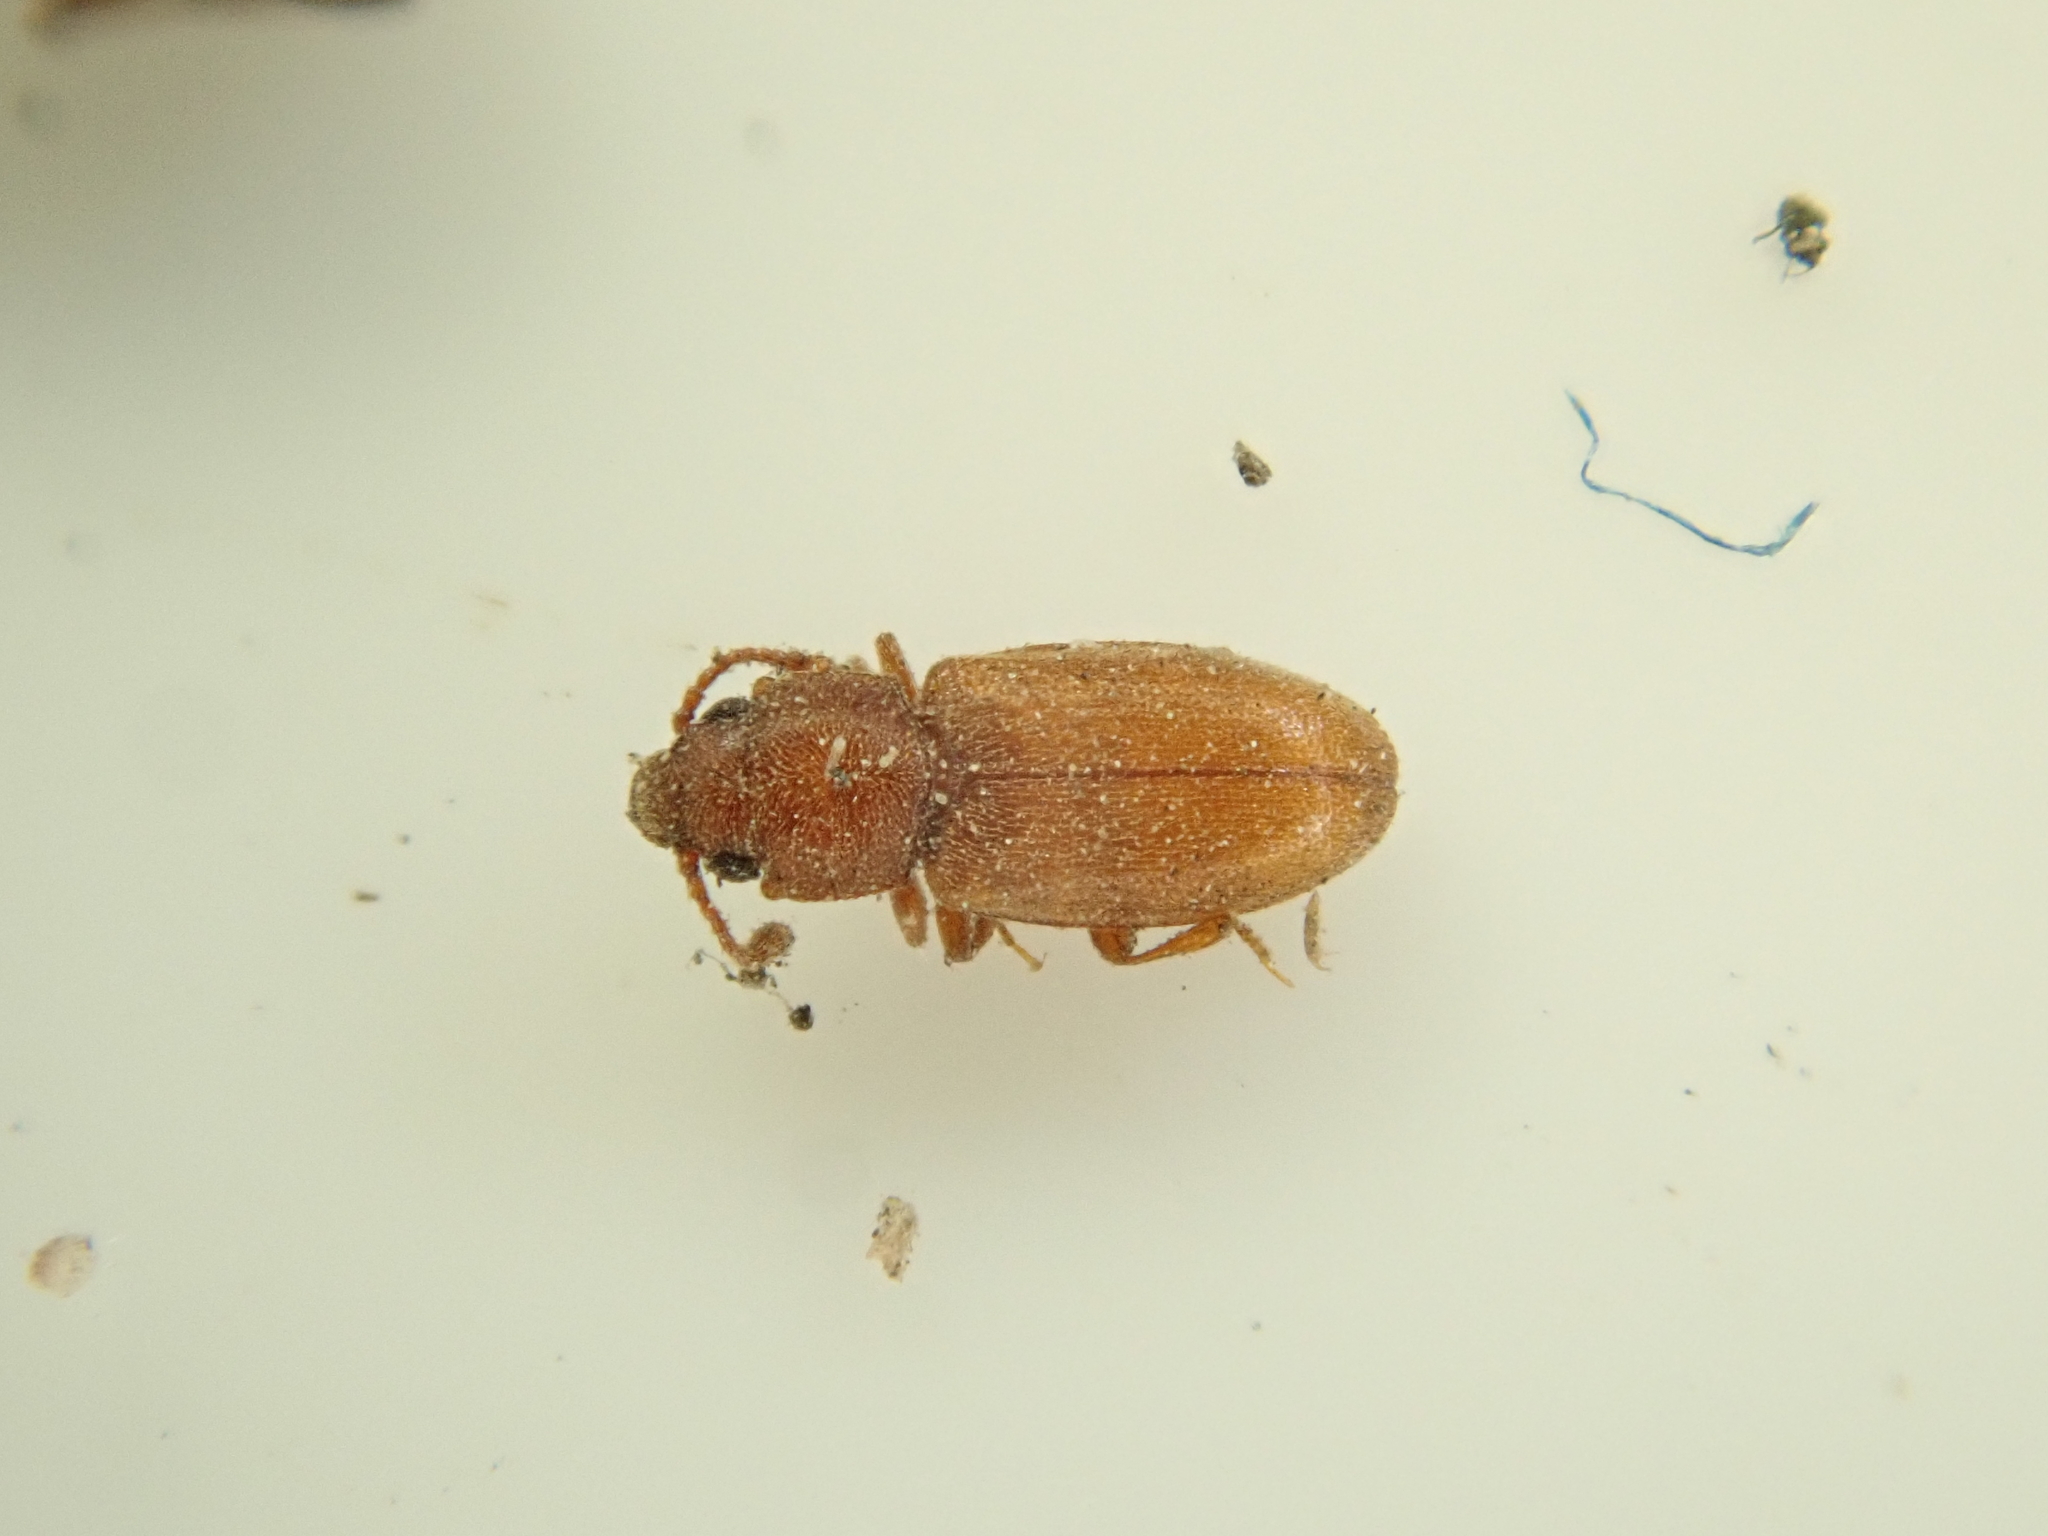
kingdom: Animalia
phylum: Arthropoda
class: Insecta
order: Coleoptera
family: Silvanidae
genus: Ahasverus
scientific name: Ahasverus advena
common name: Foreign grain beetle
